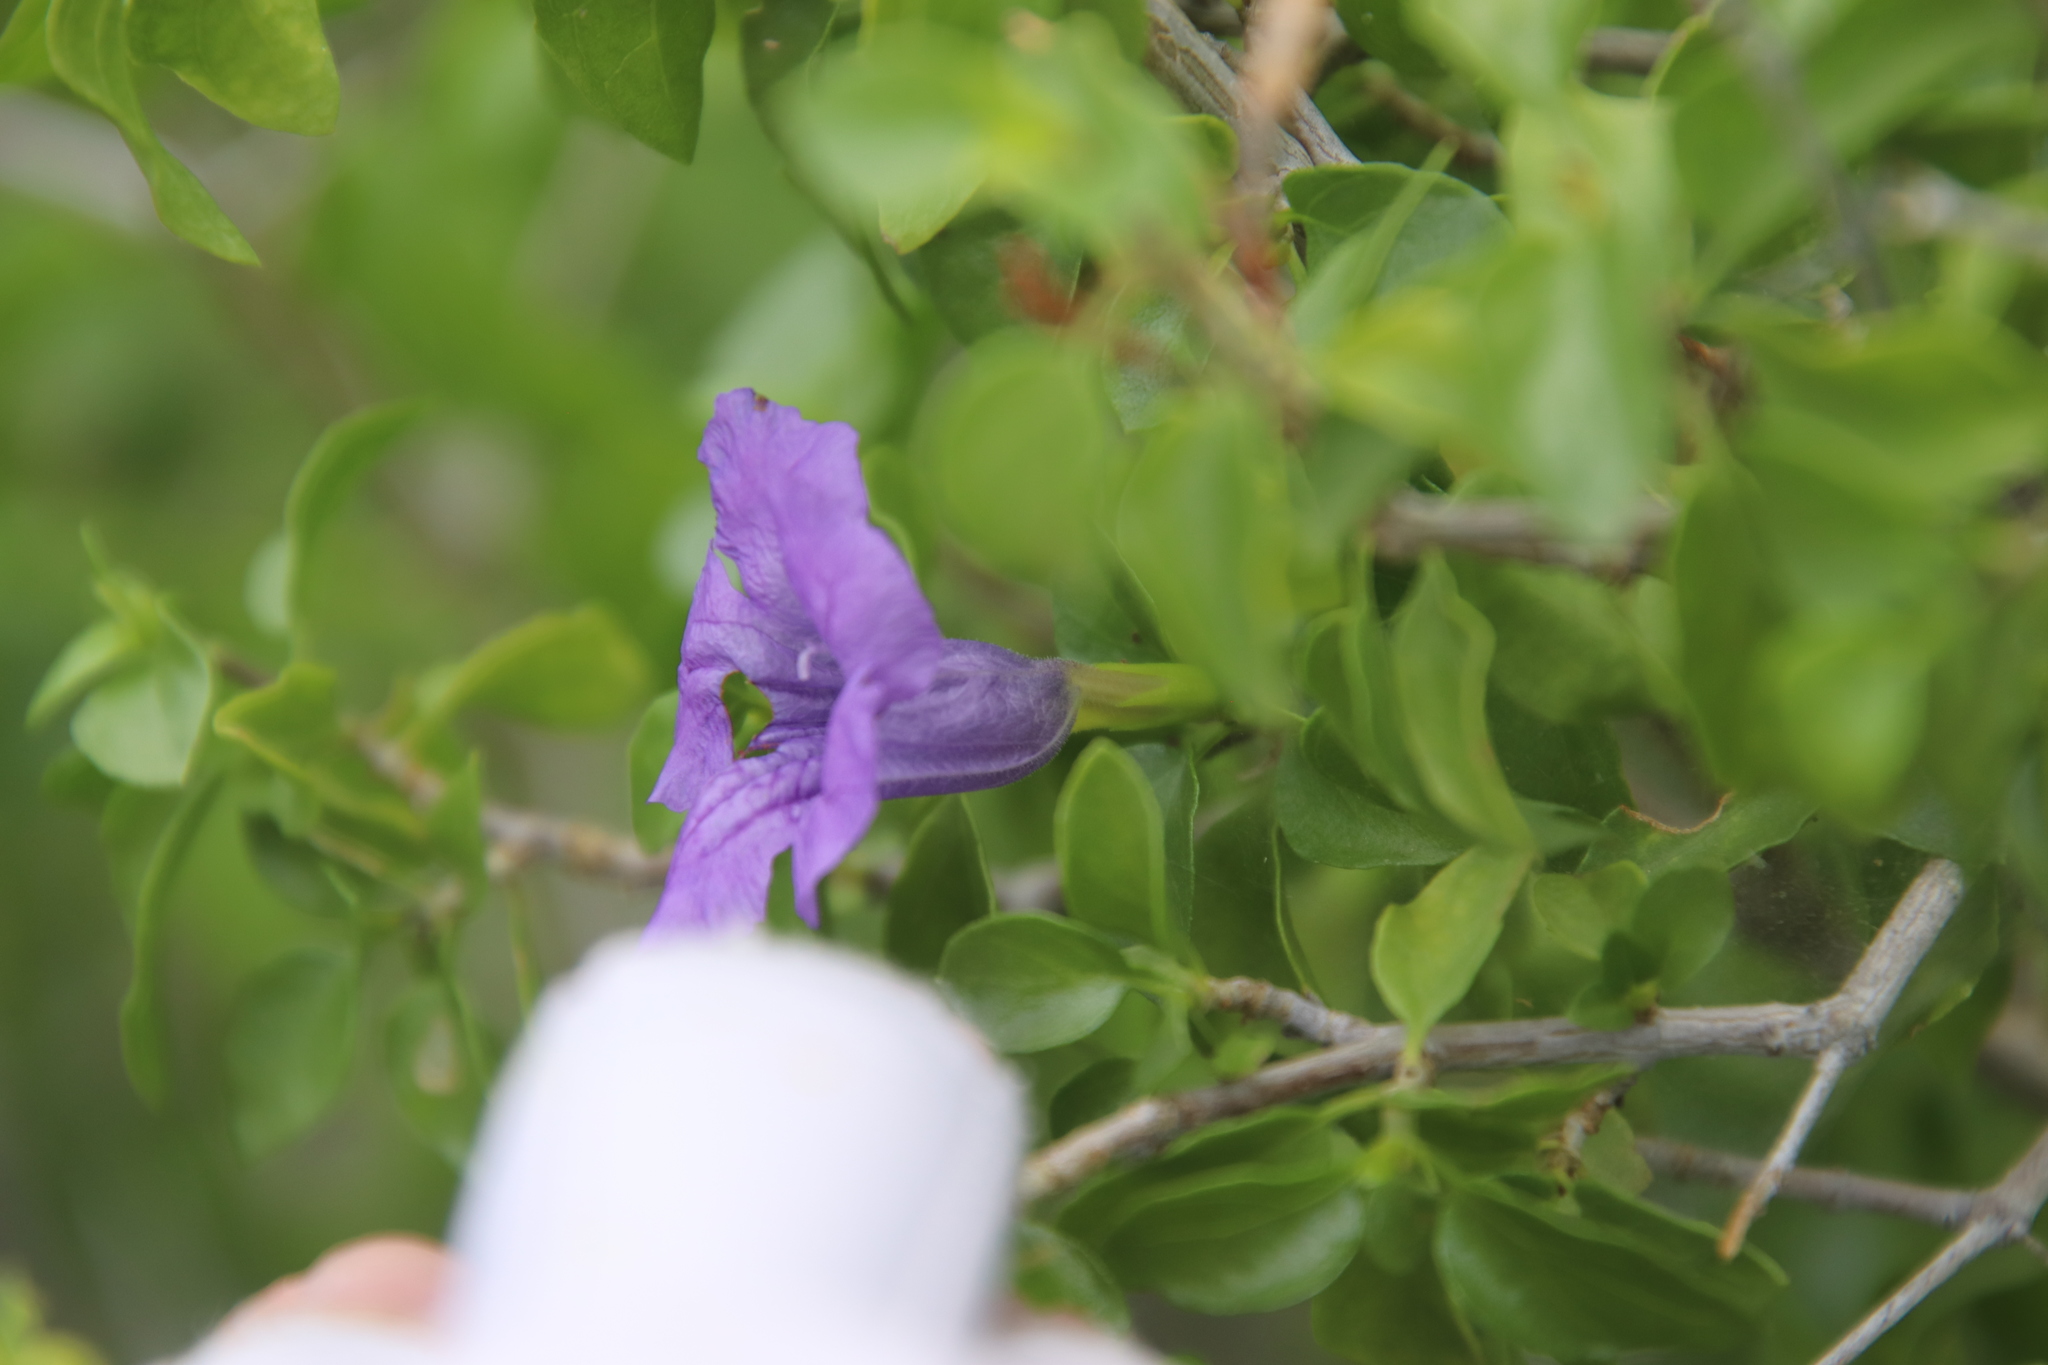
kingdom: Plantae
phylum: Tracheophyta
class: Magnoliopsida
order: Lamiales
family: Acanthaceae
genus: Ruellia
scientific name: Ruellia californica
